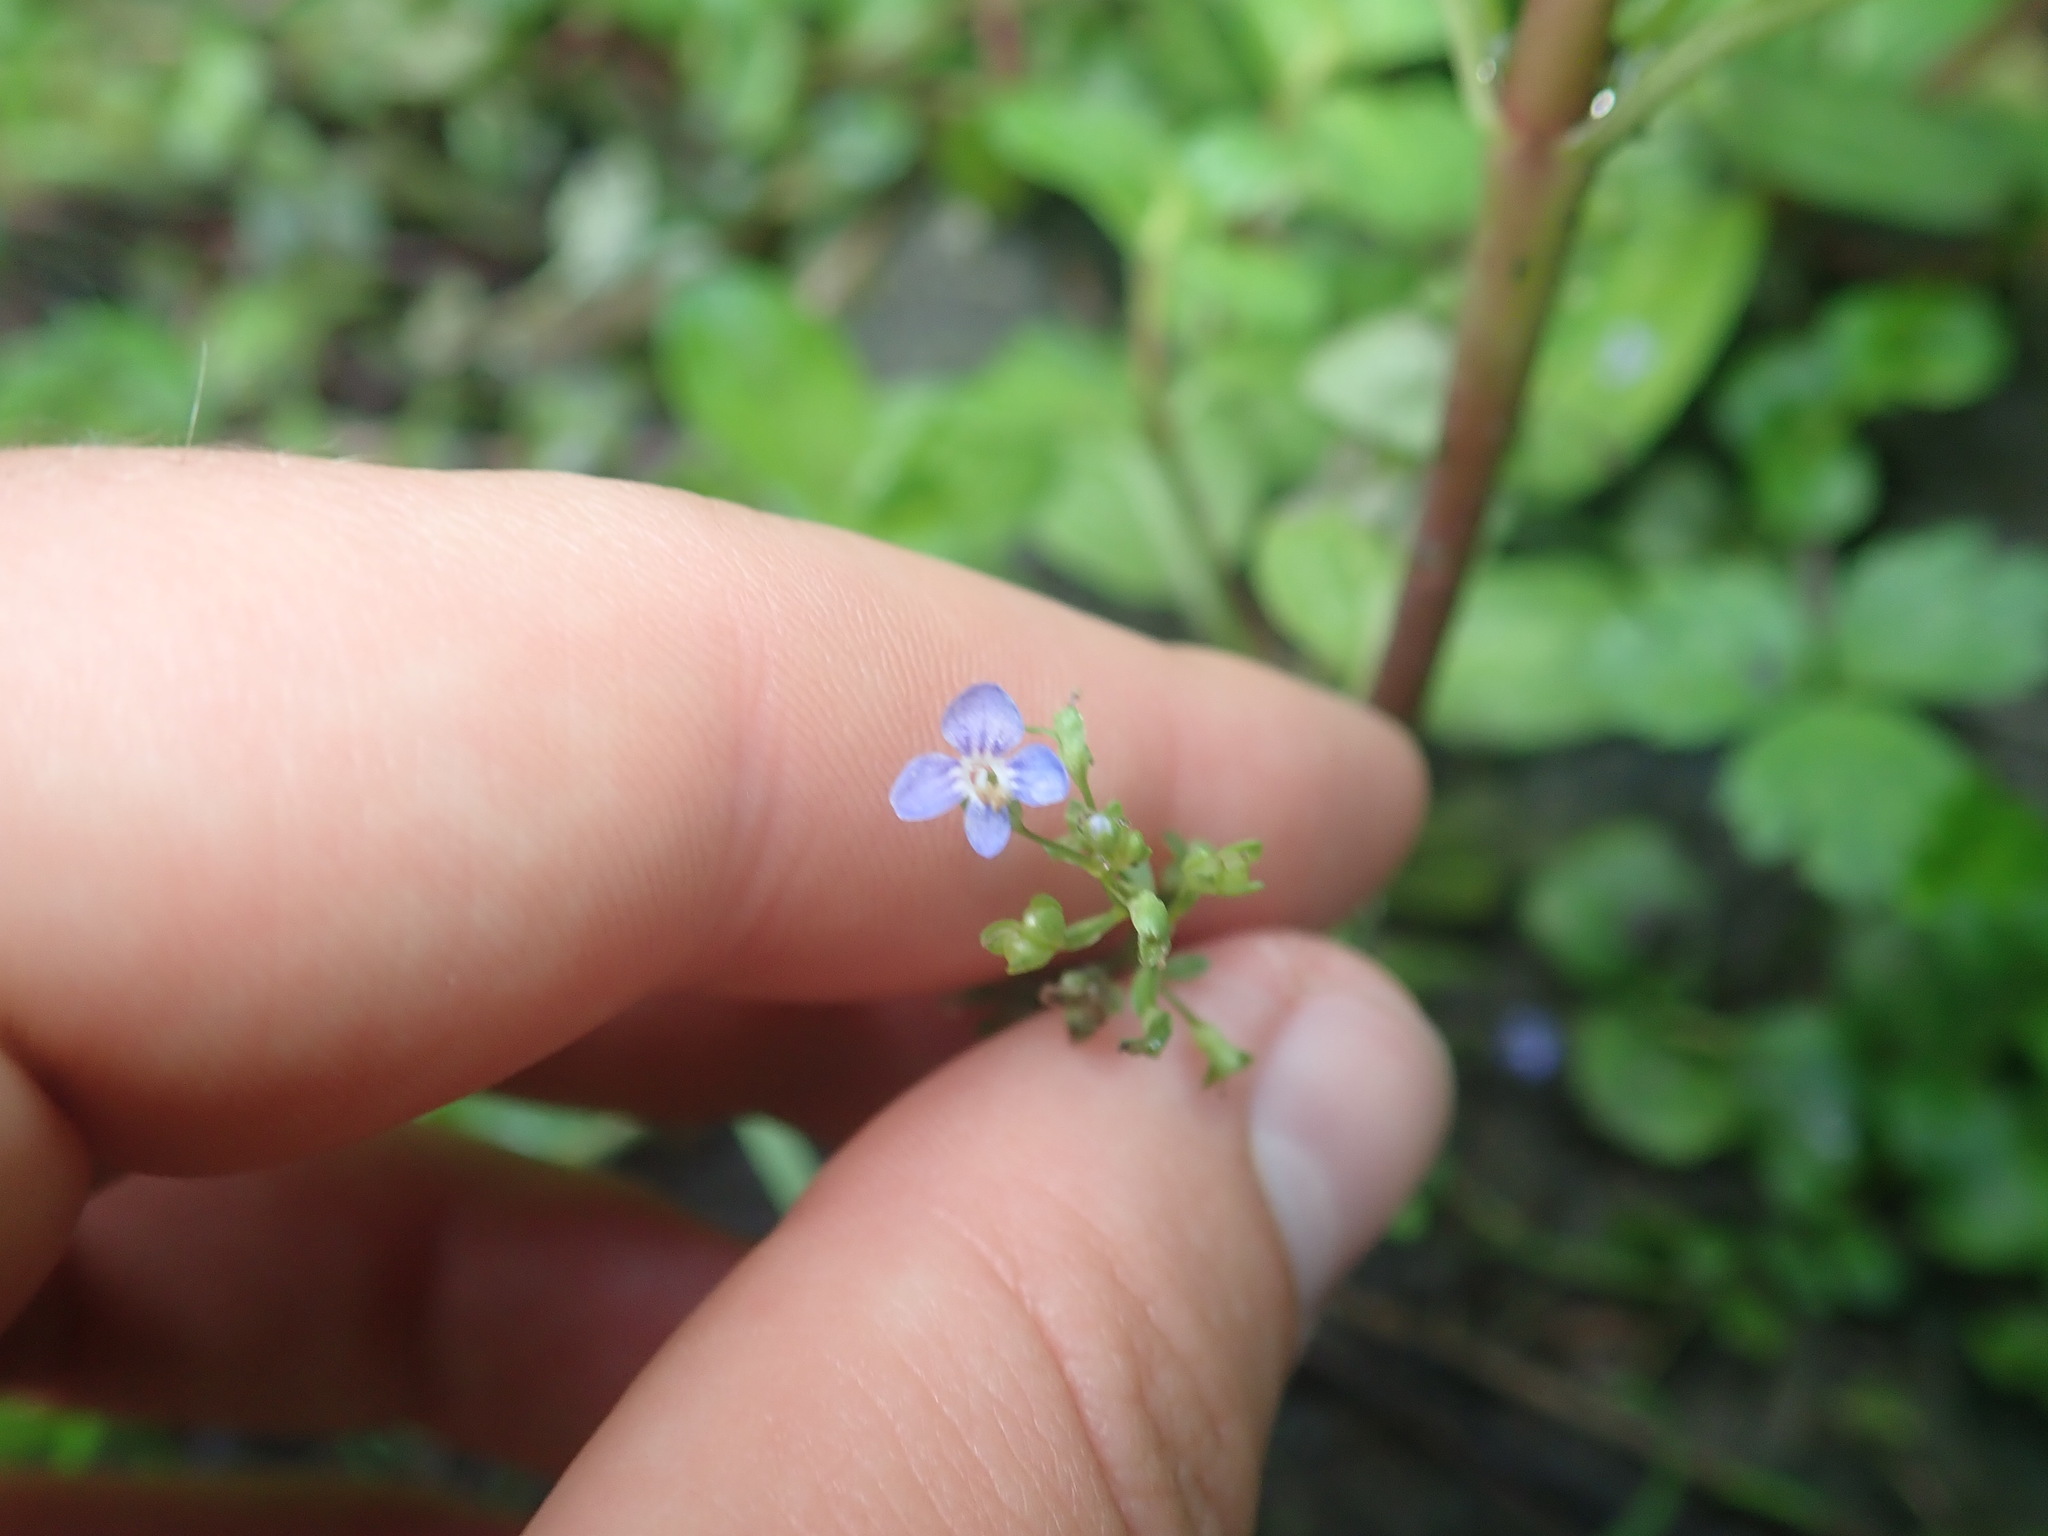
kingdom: Plantae
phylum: Tracheophyta
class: Magnoliopsida
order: Lamiales
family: Plantaginaceae
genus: Veronica
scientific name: Veronica beccabunga
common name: Brooklime
